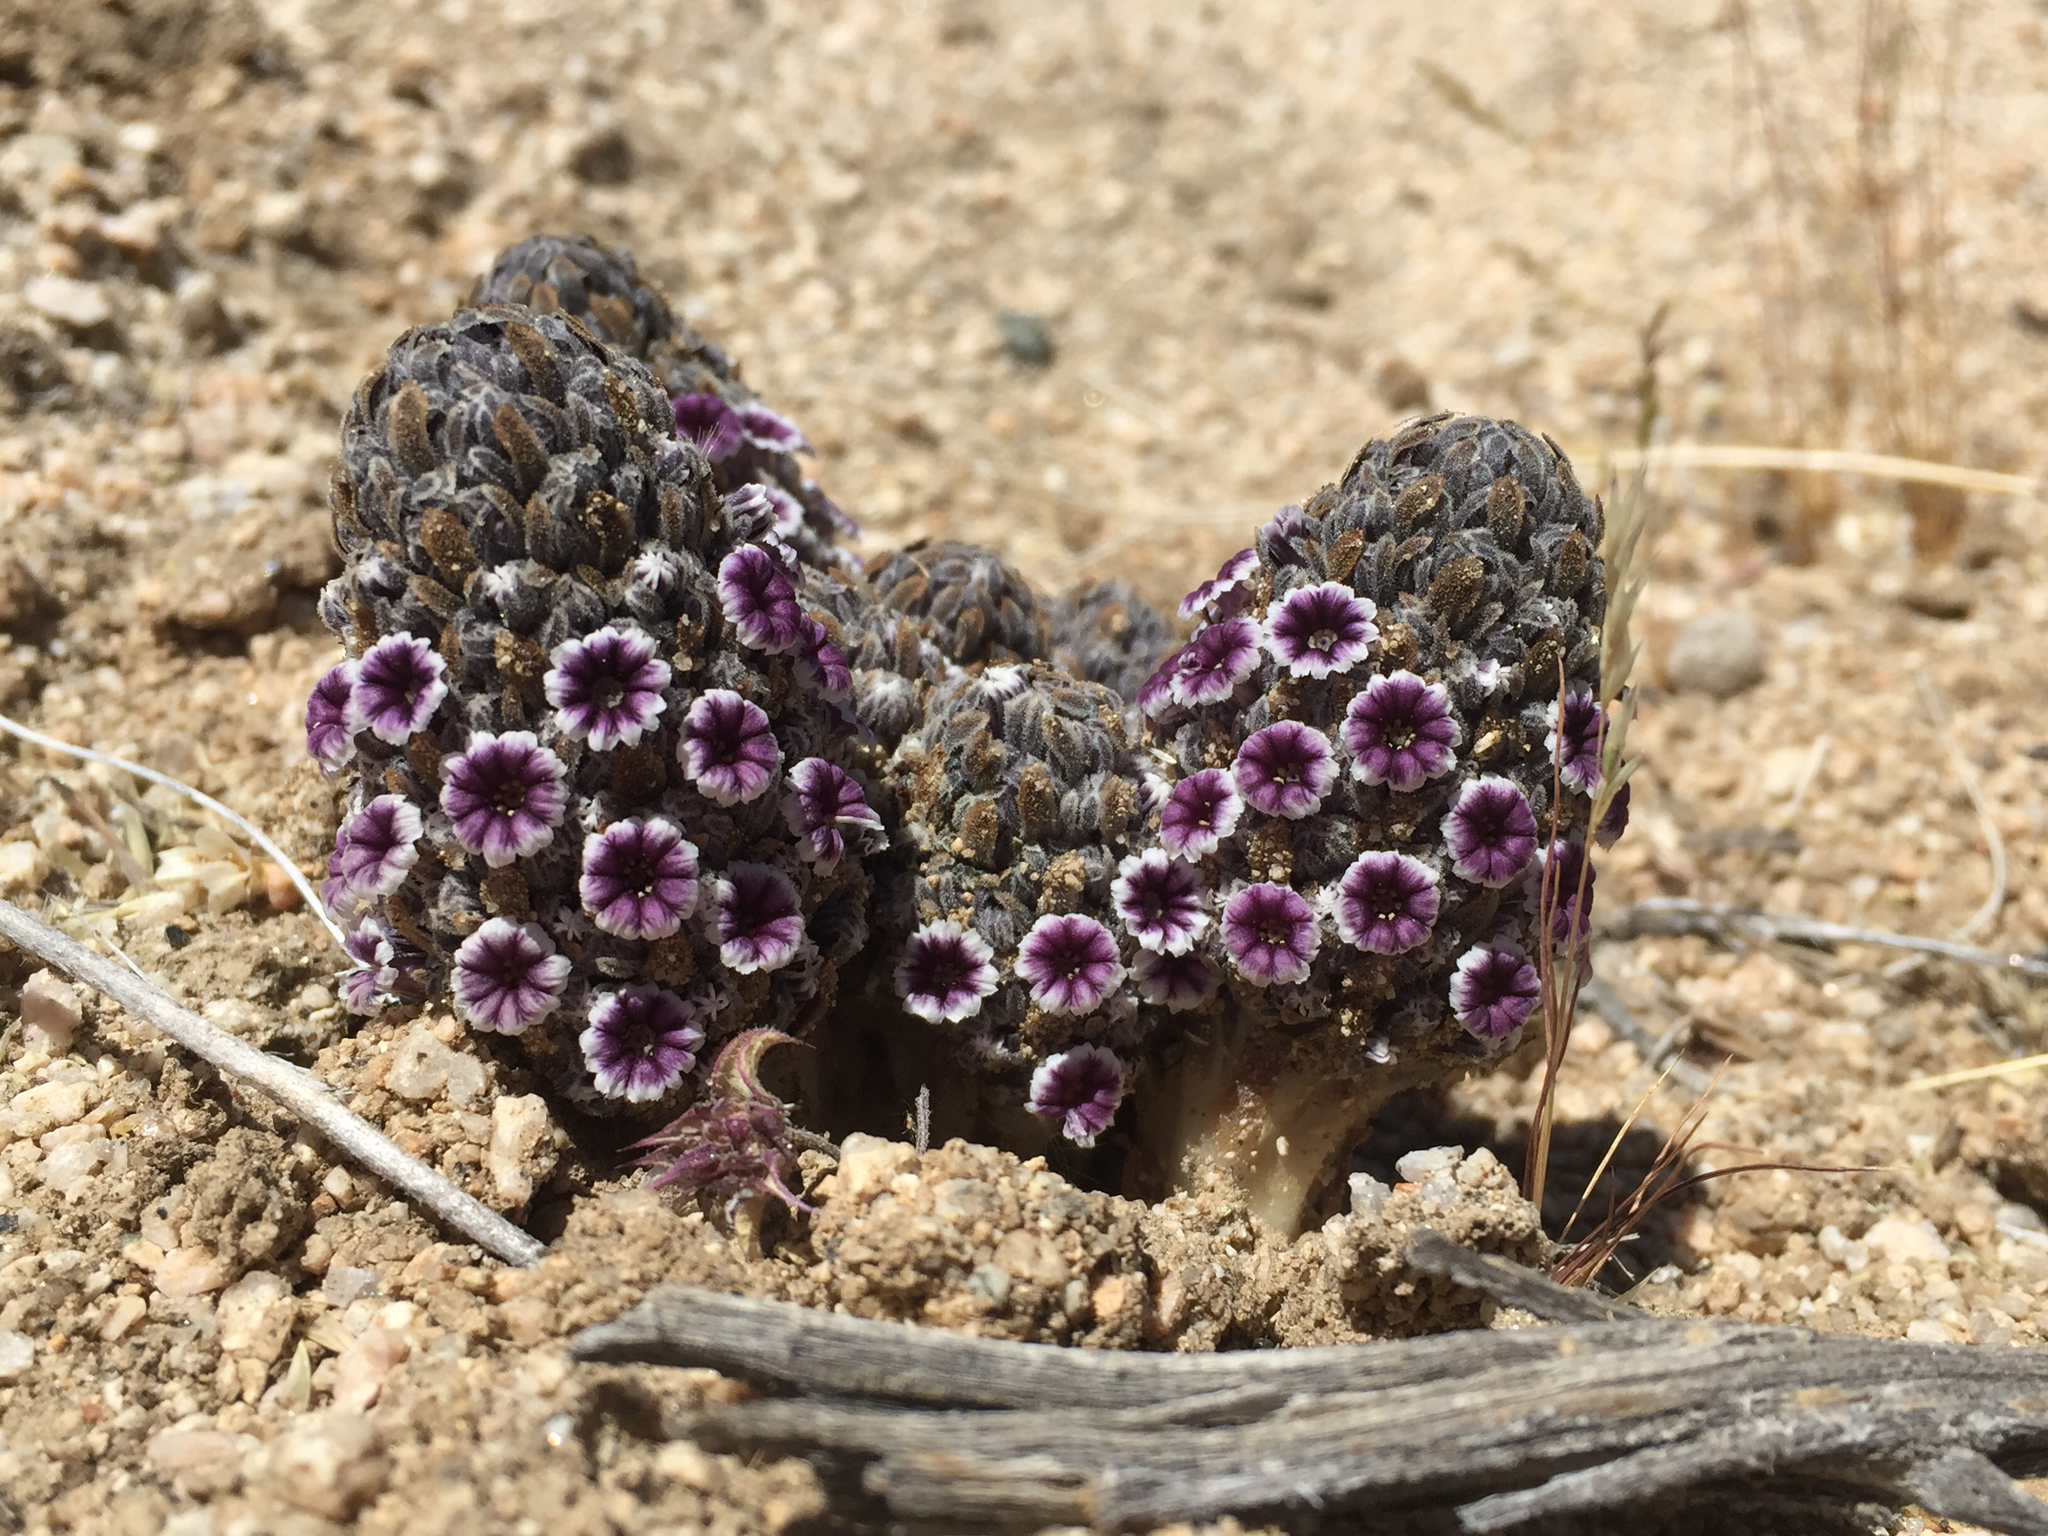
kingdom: Plantae
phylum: Tracheophyta
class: Magnoliopsida
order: Boraginales
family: Lennoaceae
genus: Pholisma
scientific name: Pholisma arenarium
